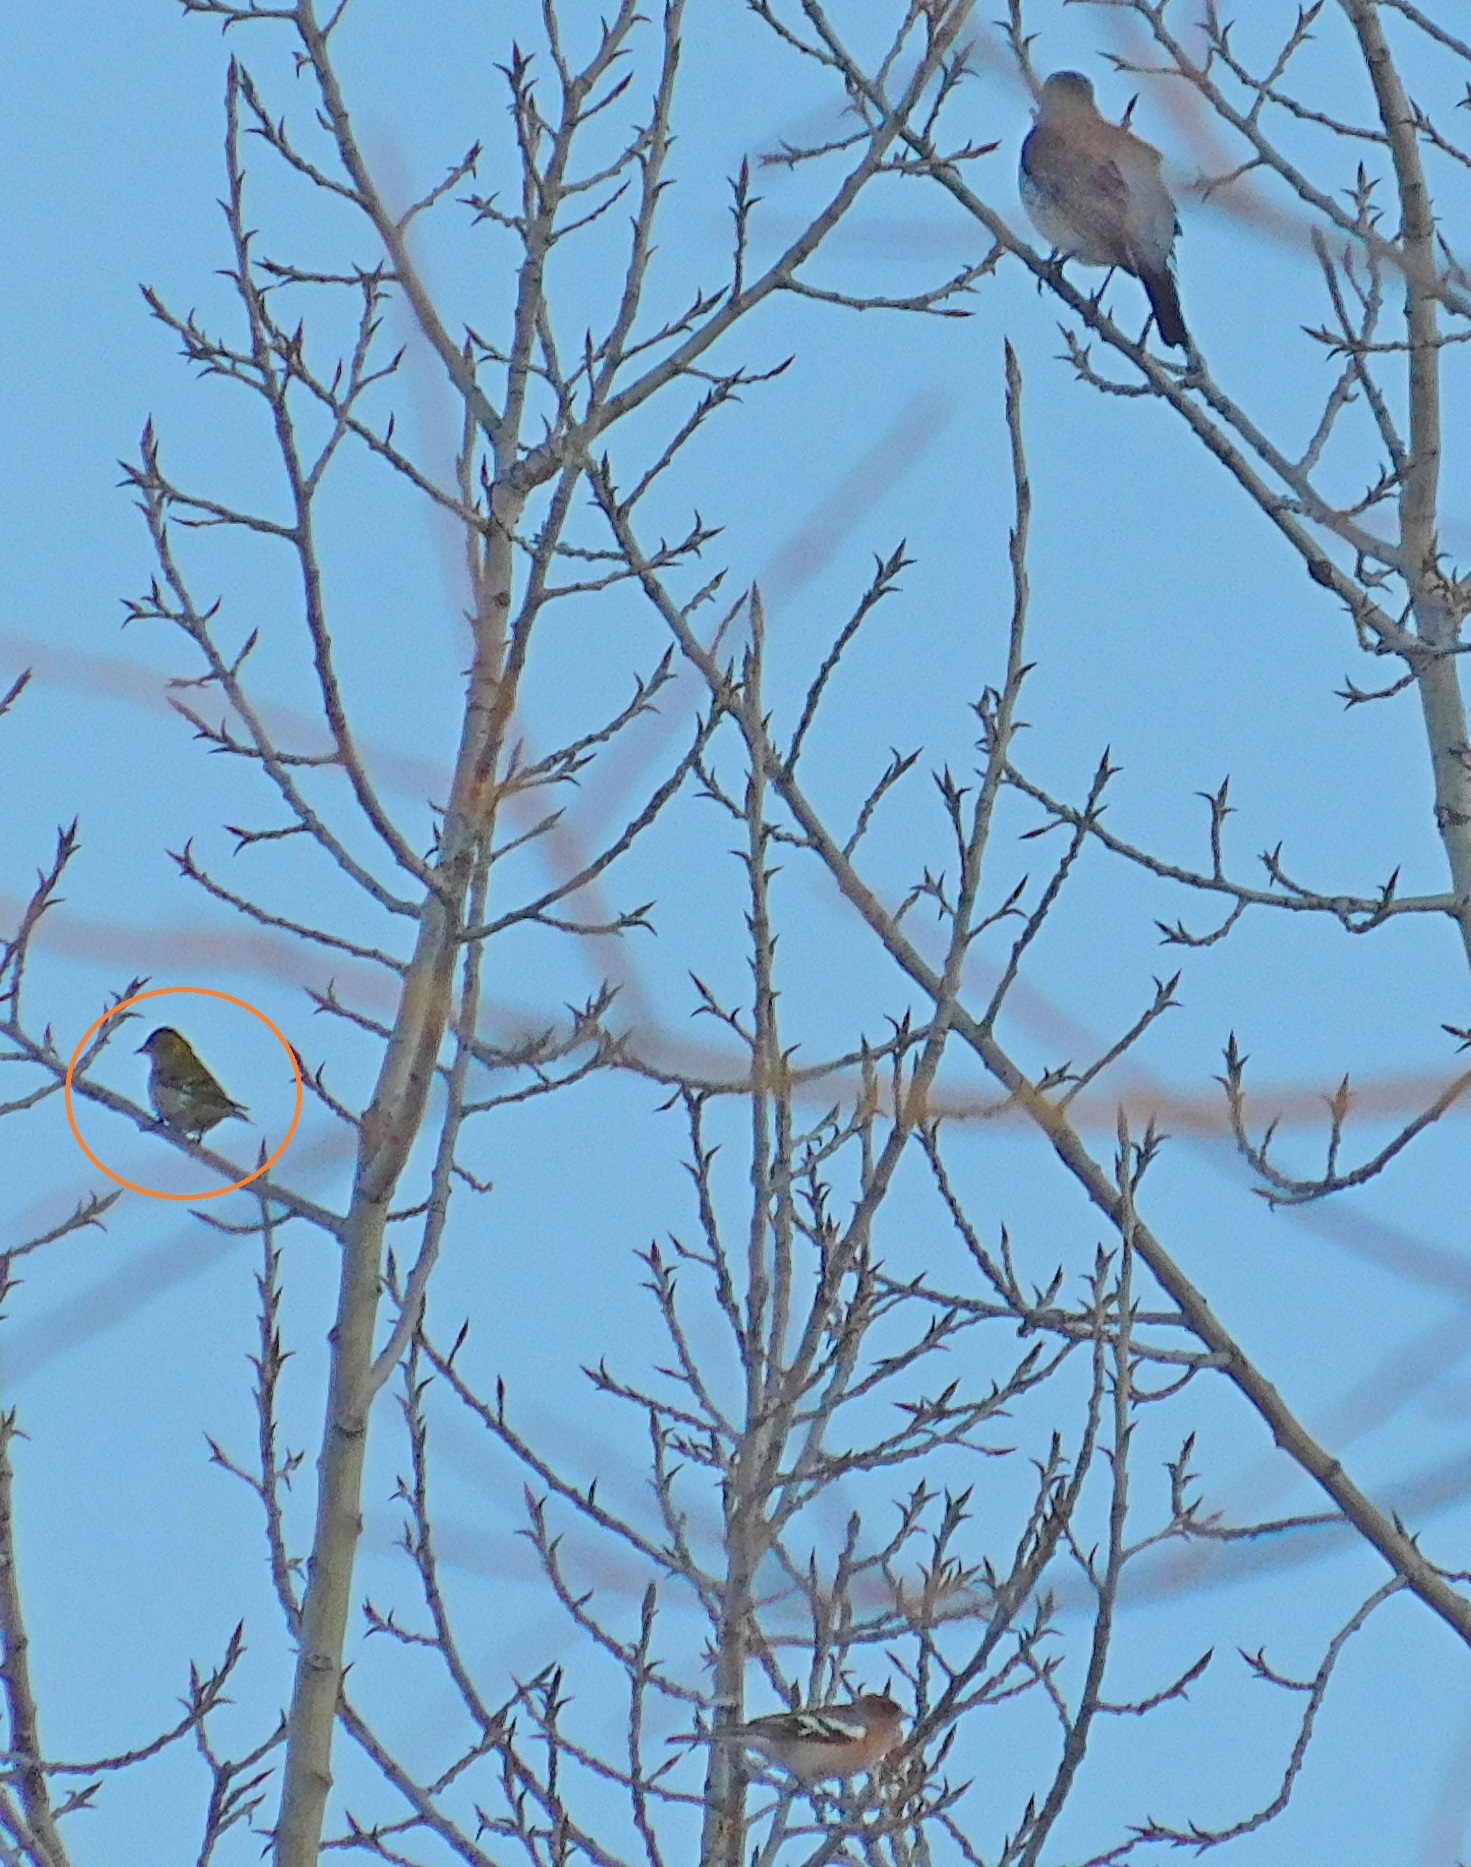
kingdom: Animalia
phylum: Chordata
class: Aves
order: Passeriformes
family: Fringillidae
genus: Spinus
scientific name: Spinus spinus
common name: Eurasian siskin
